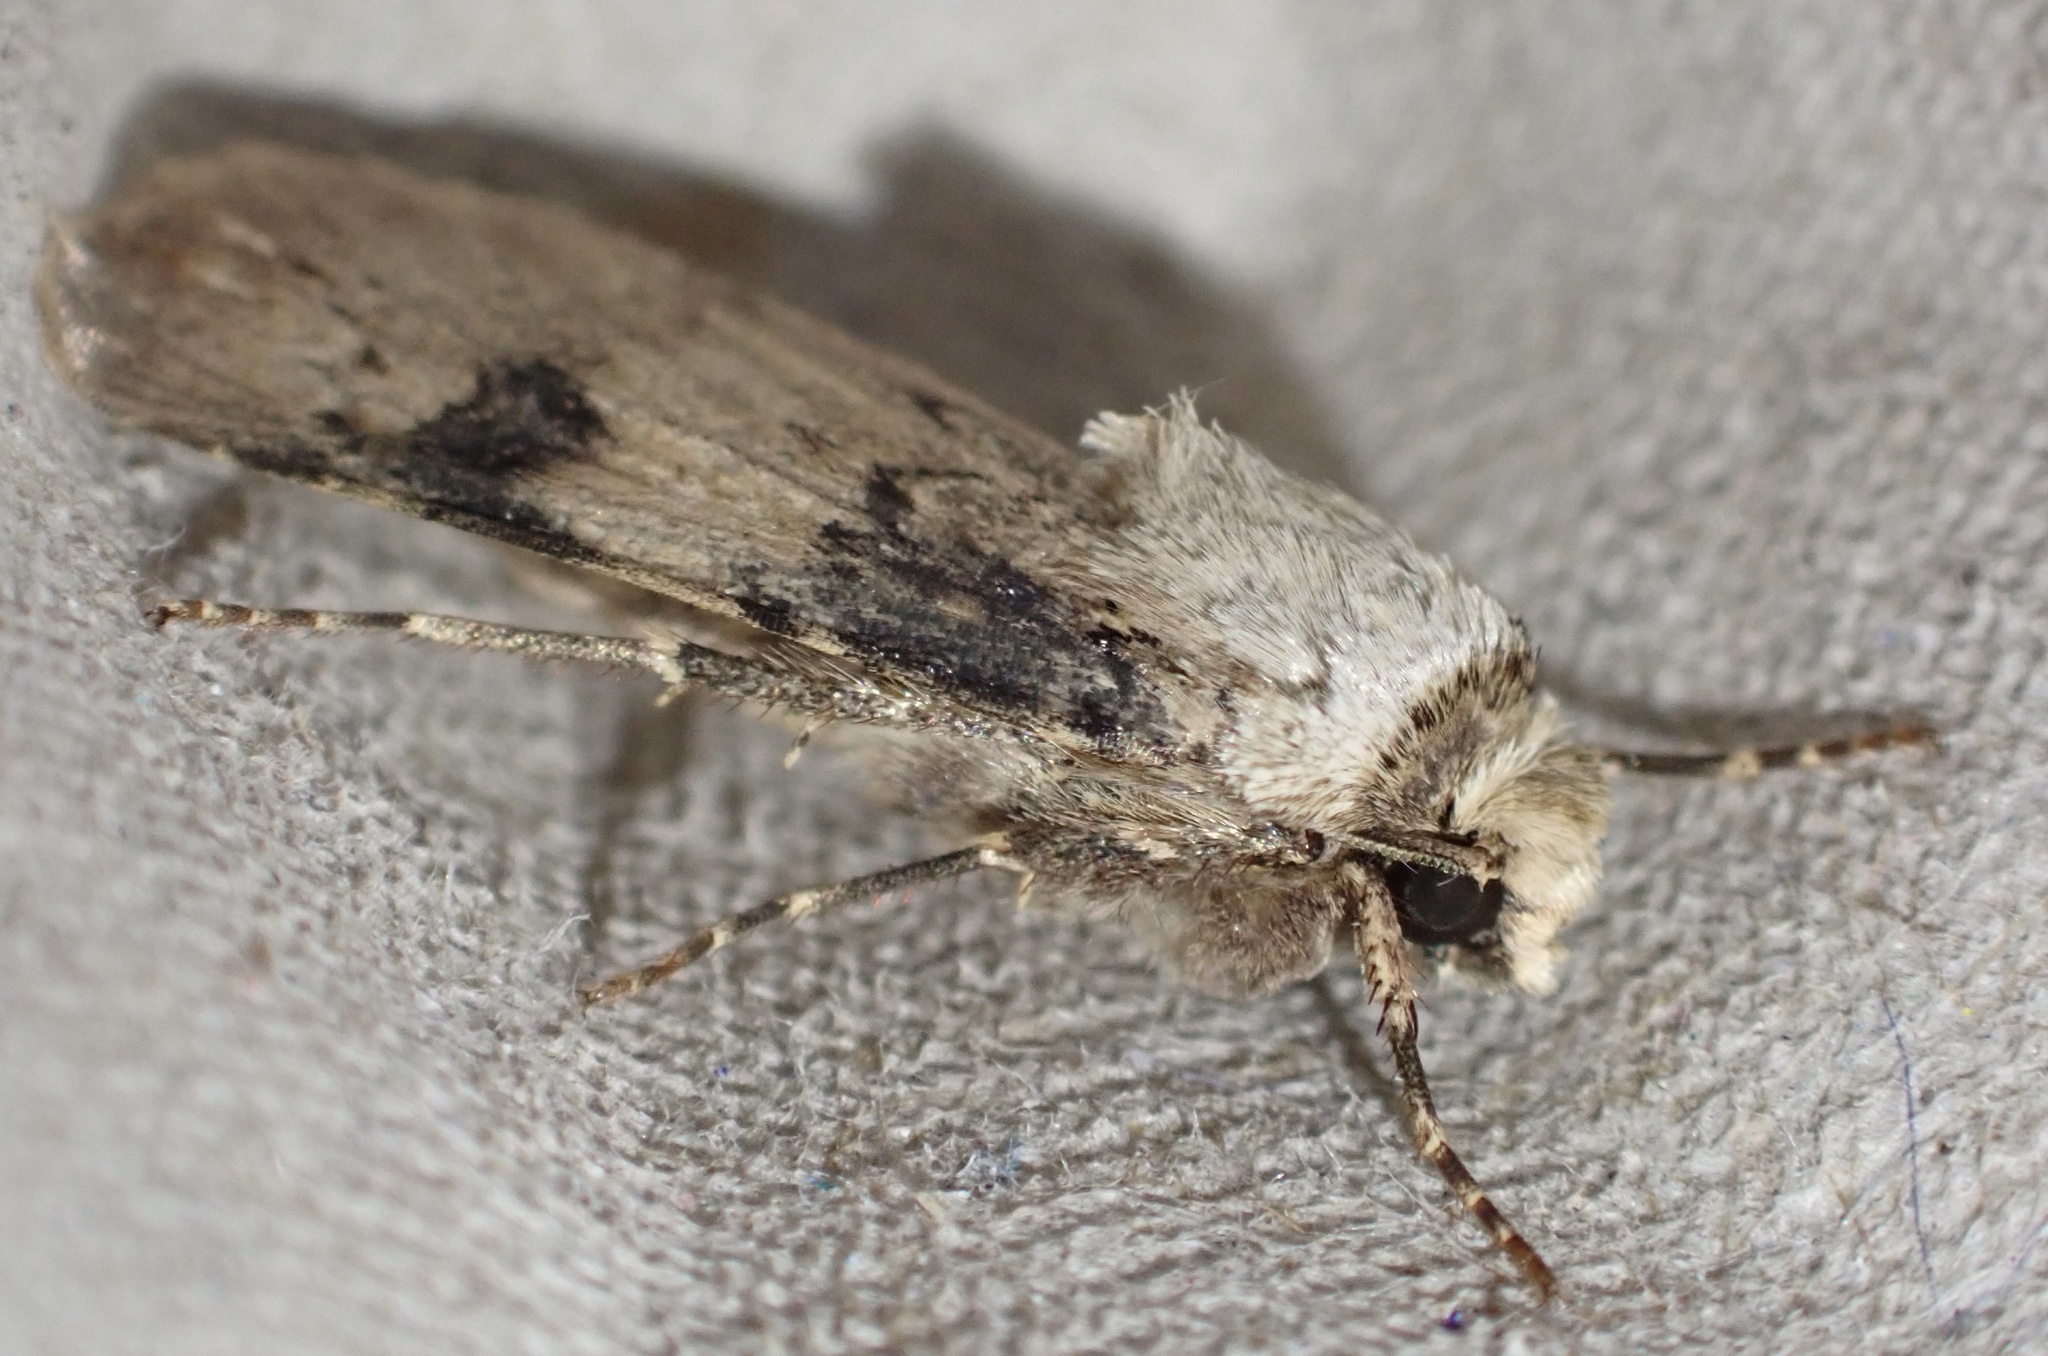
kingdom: Animalia
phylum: Arthropoda
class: Insecta
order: Lepidoptera
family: Noctuidae
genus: Agrotis
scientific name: Agrotis puta
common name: Shuttle-shaped dart
